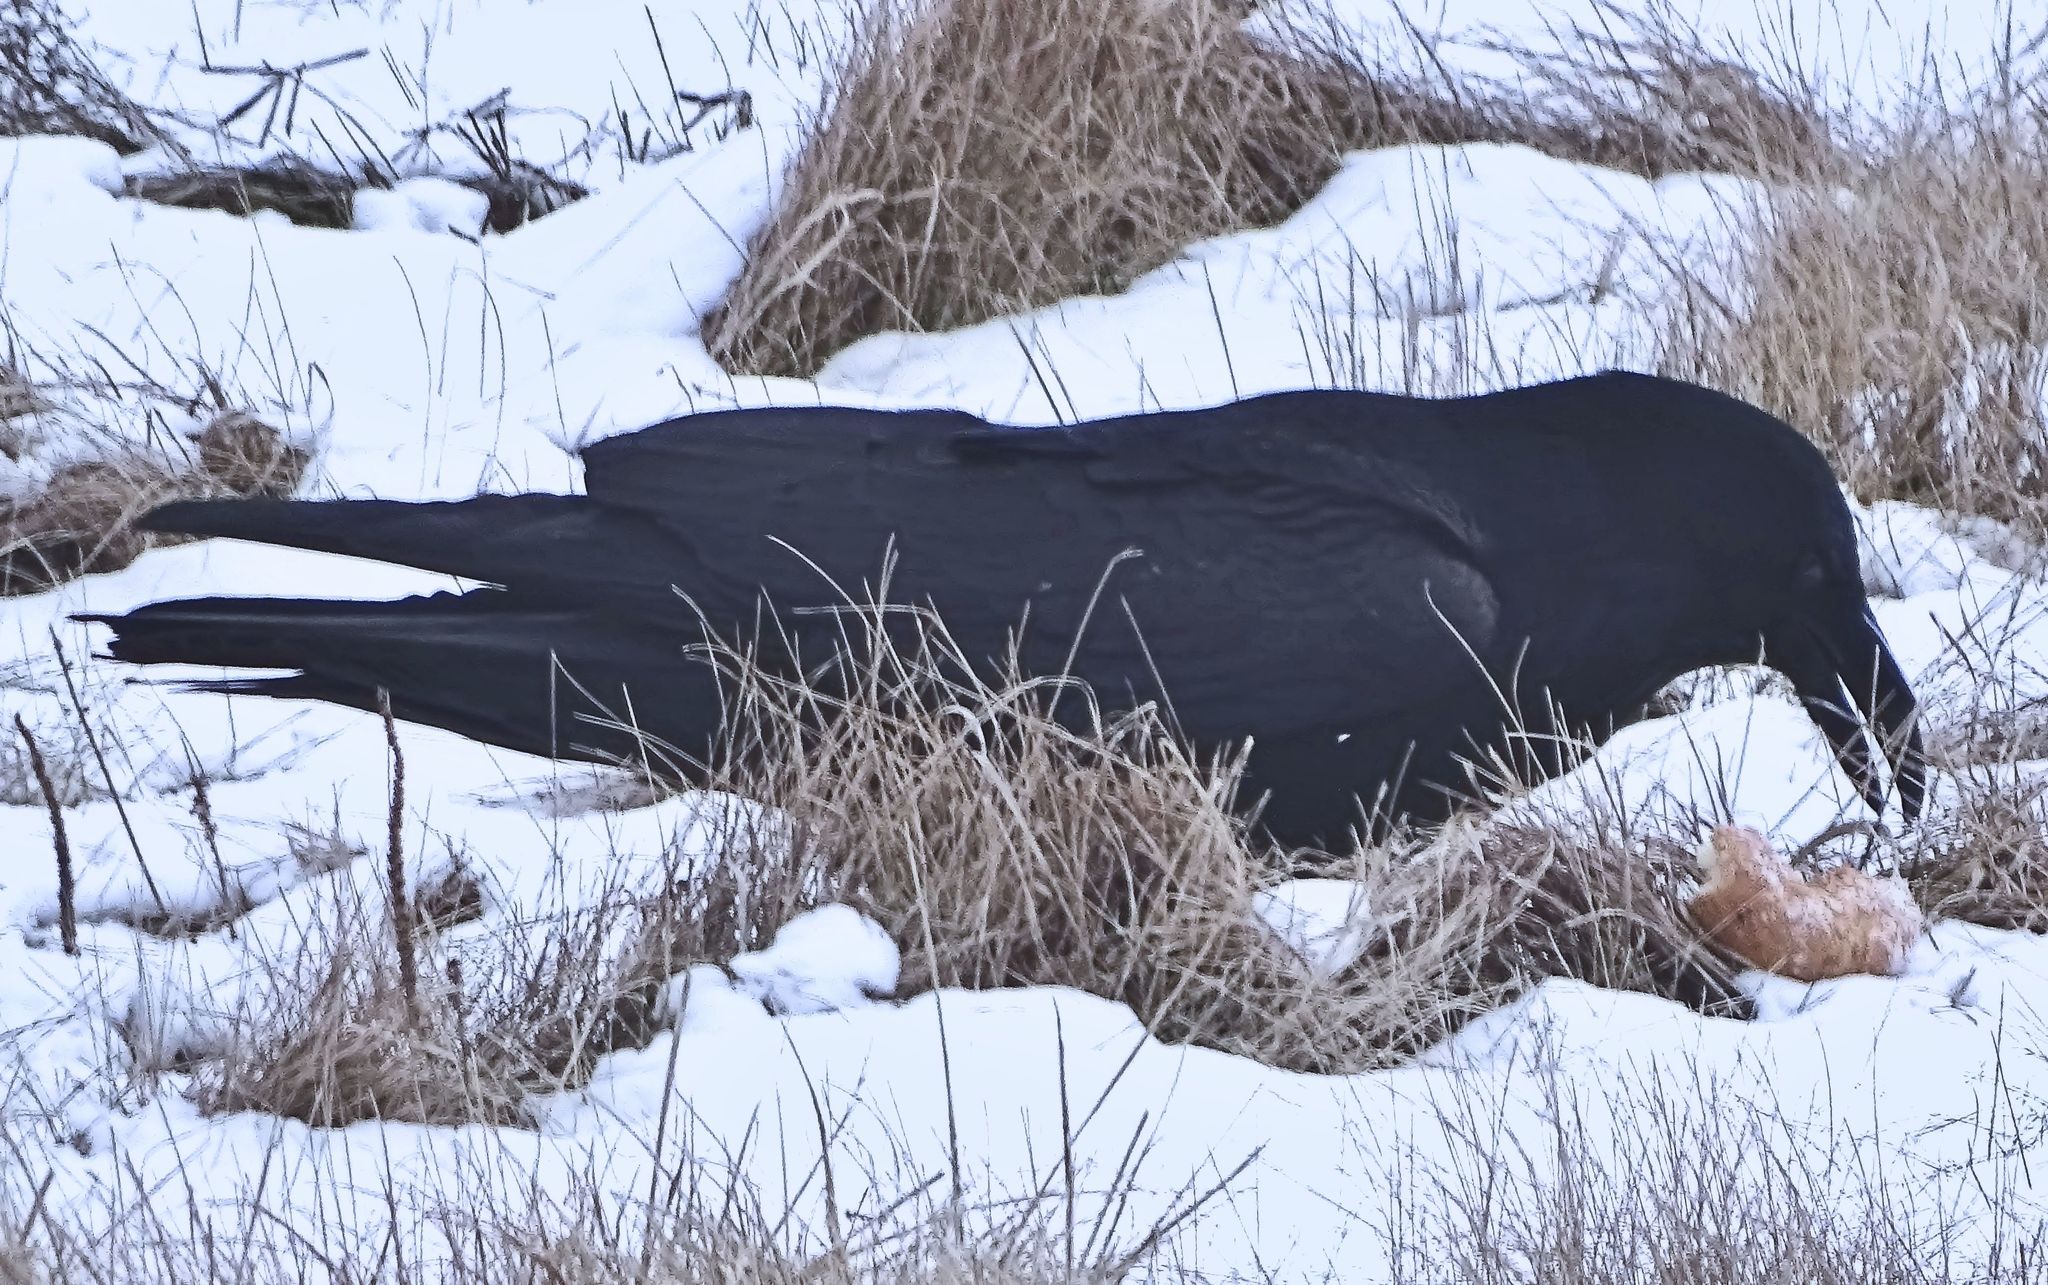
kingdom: Animalia
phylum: Chordata
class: Aves
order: Passeriformes
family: Corvidae
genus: Corvus
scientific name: Corvus corax
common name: Common raven
